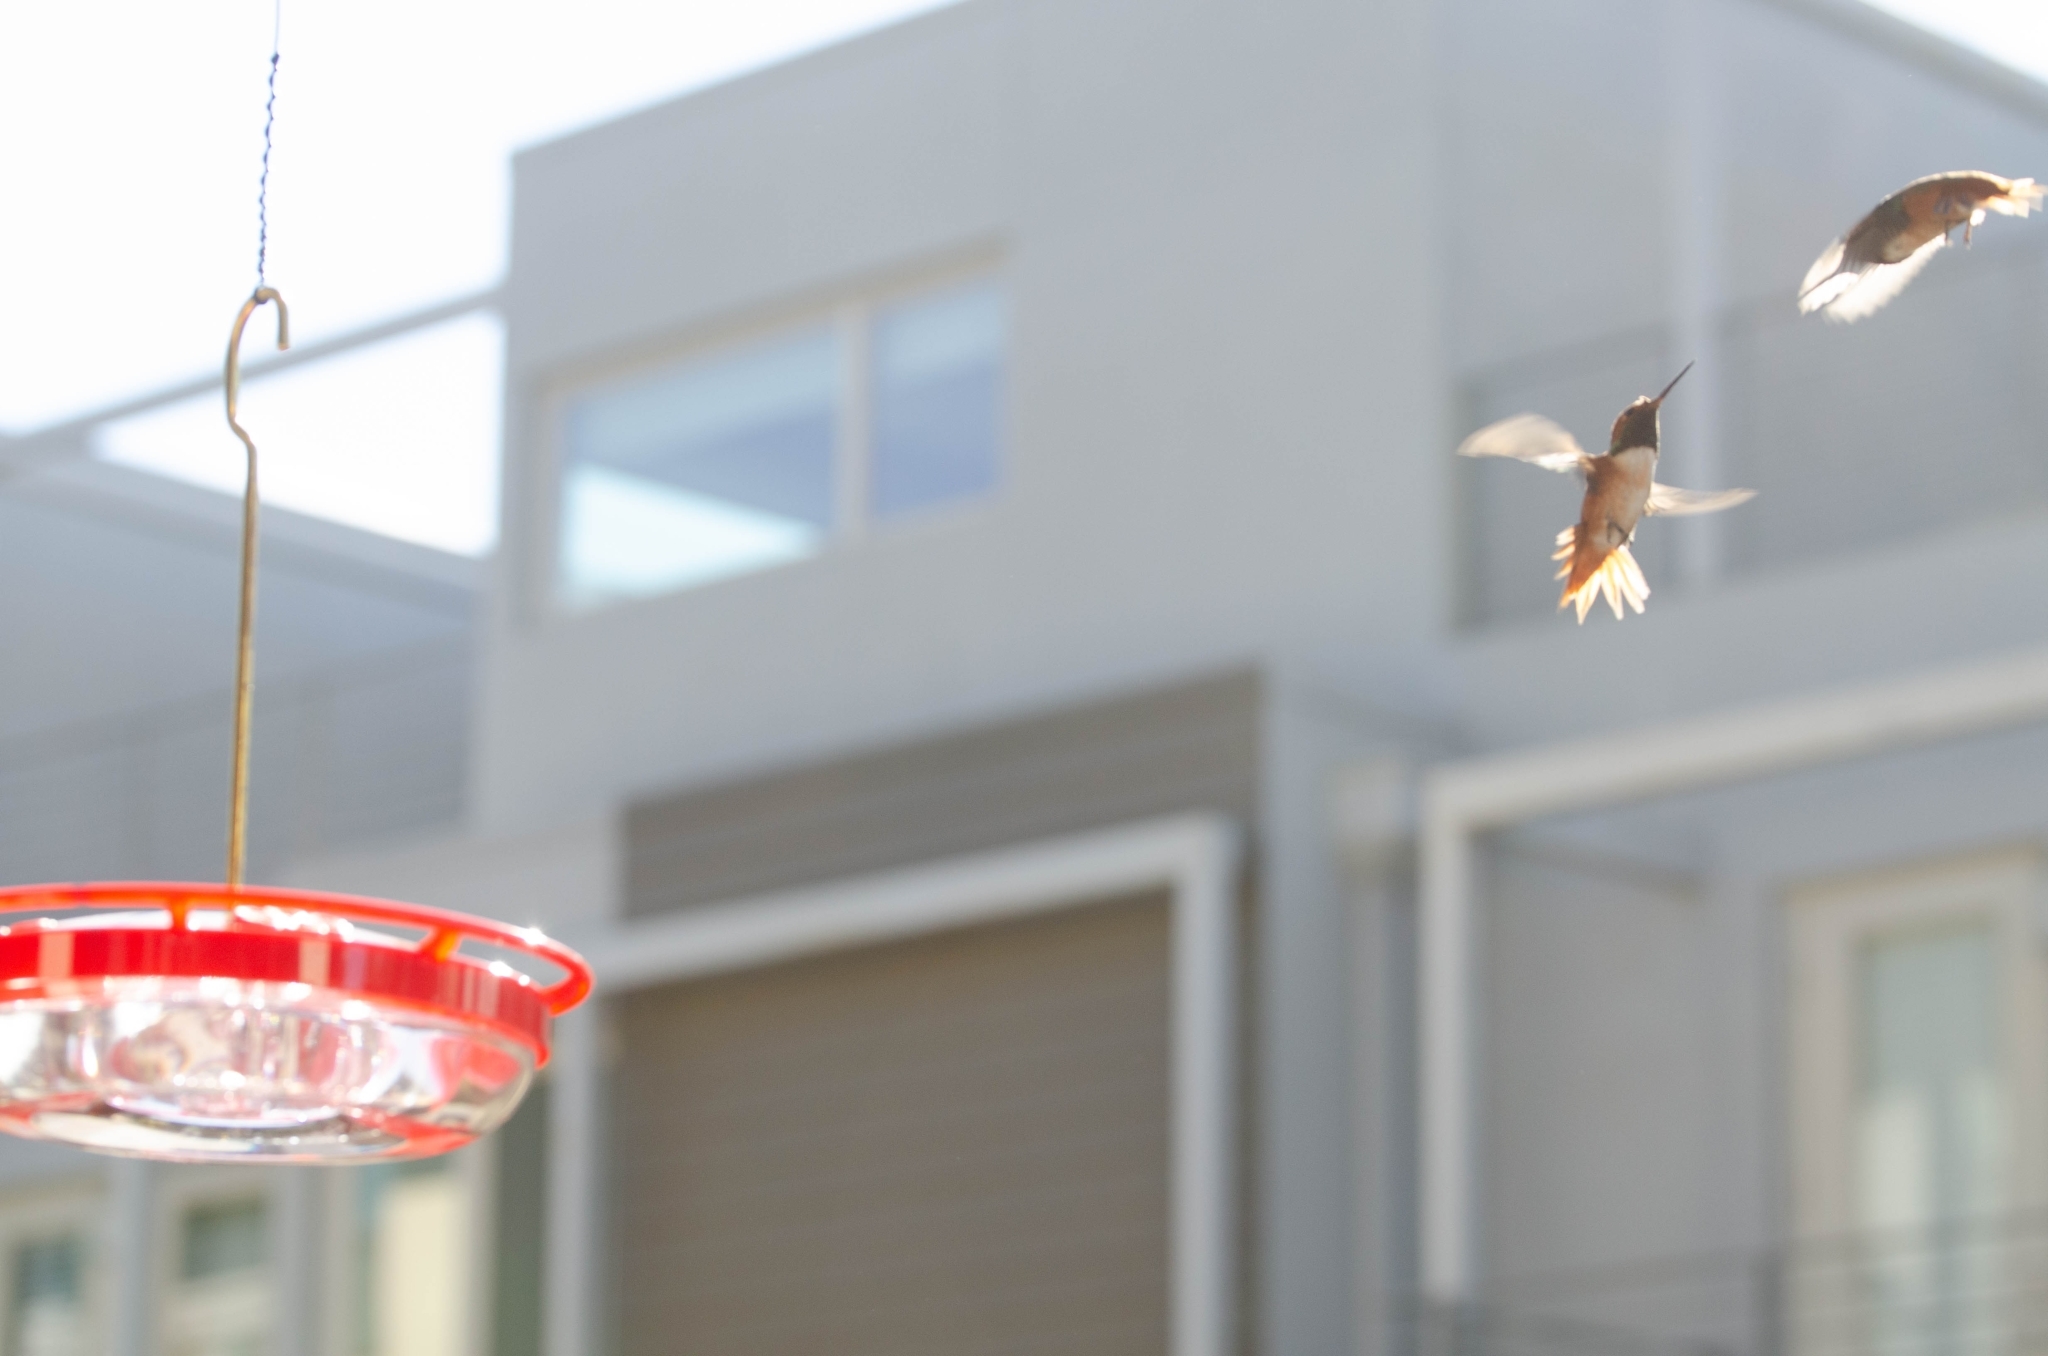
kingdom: Animalia
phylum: Chordata
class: Aves
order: Apodiformes
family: Trochilidae
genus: Selasphorus
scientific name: Selasphorus sasin
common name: Allen's hummingbird
